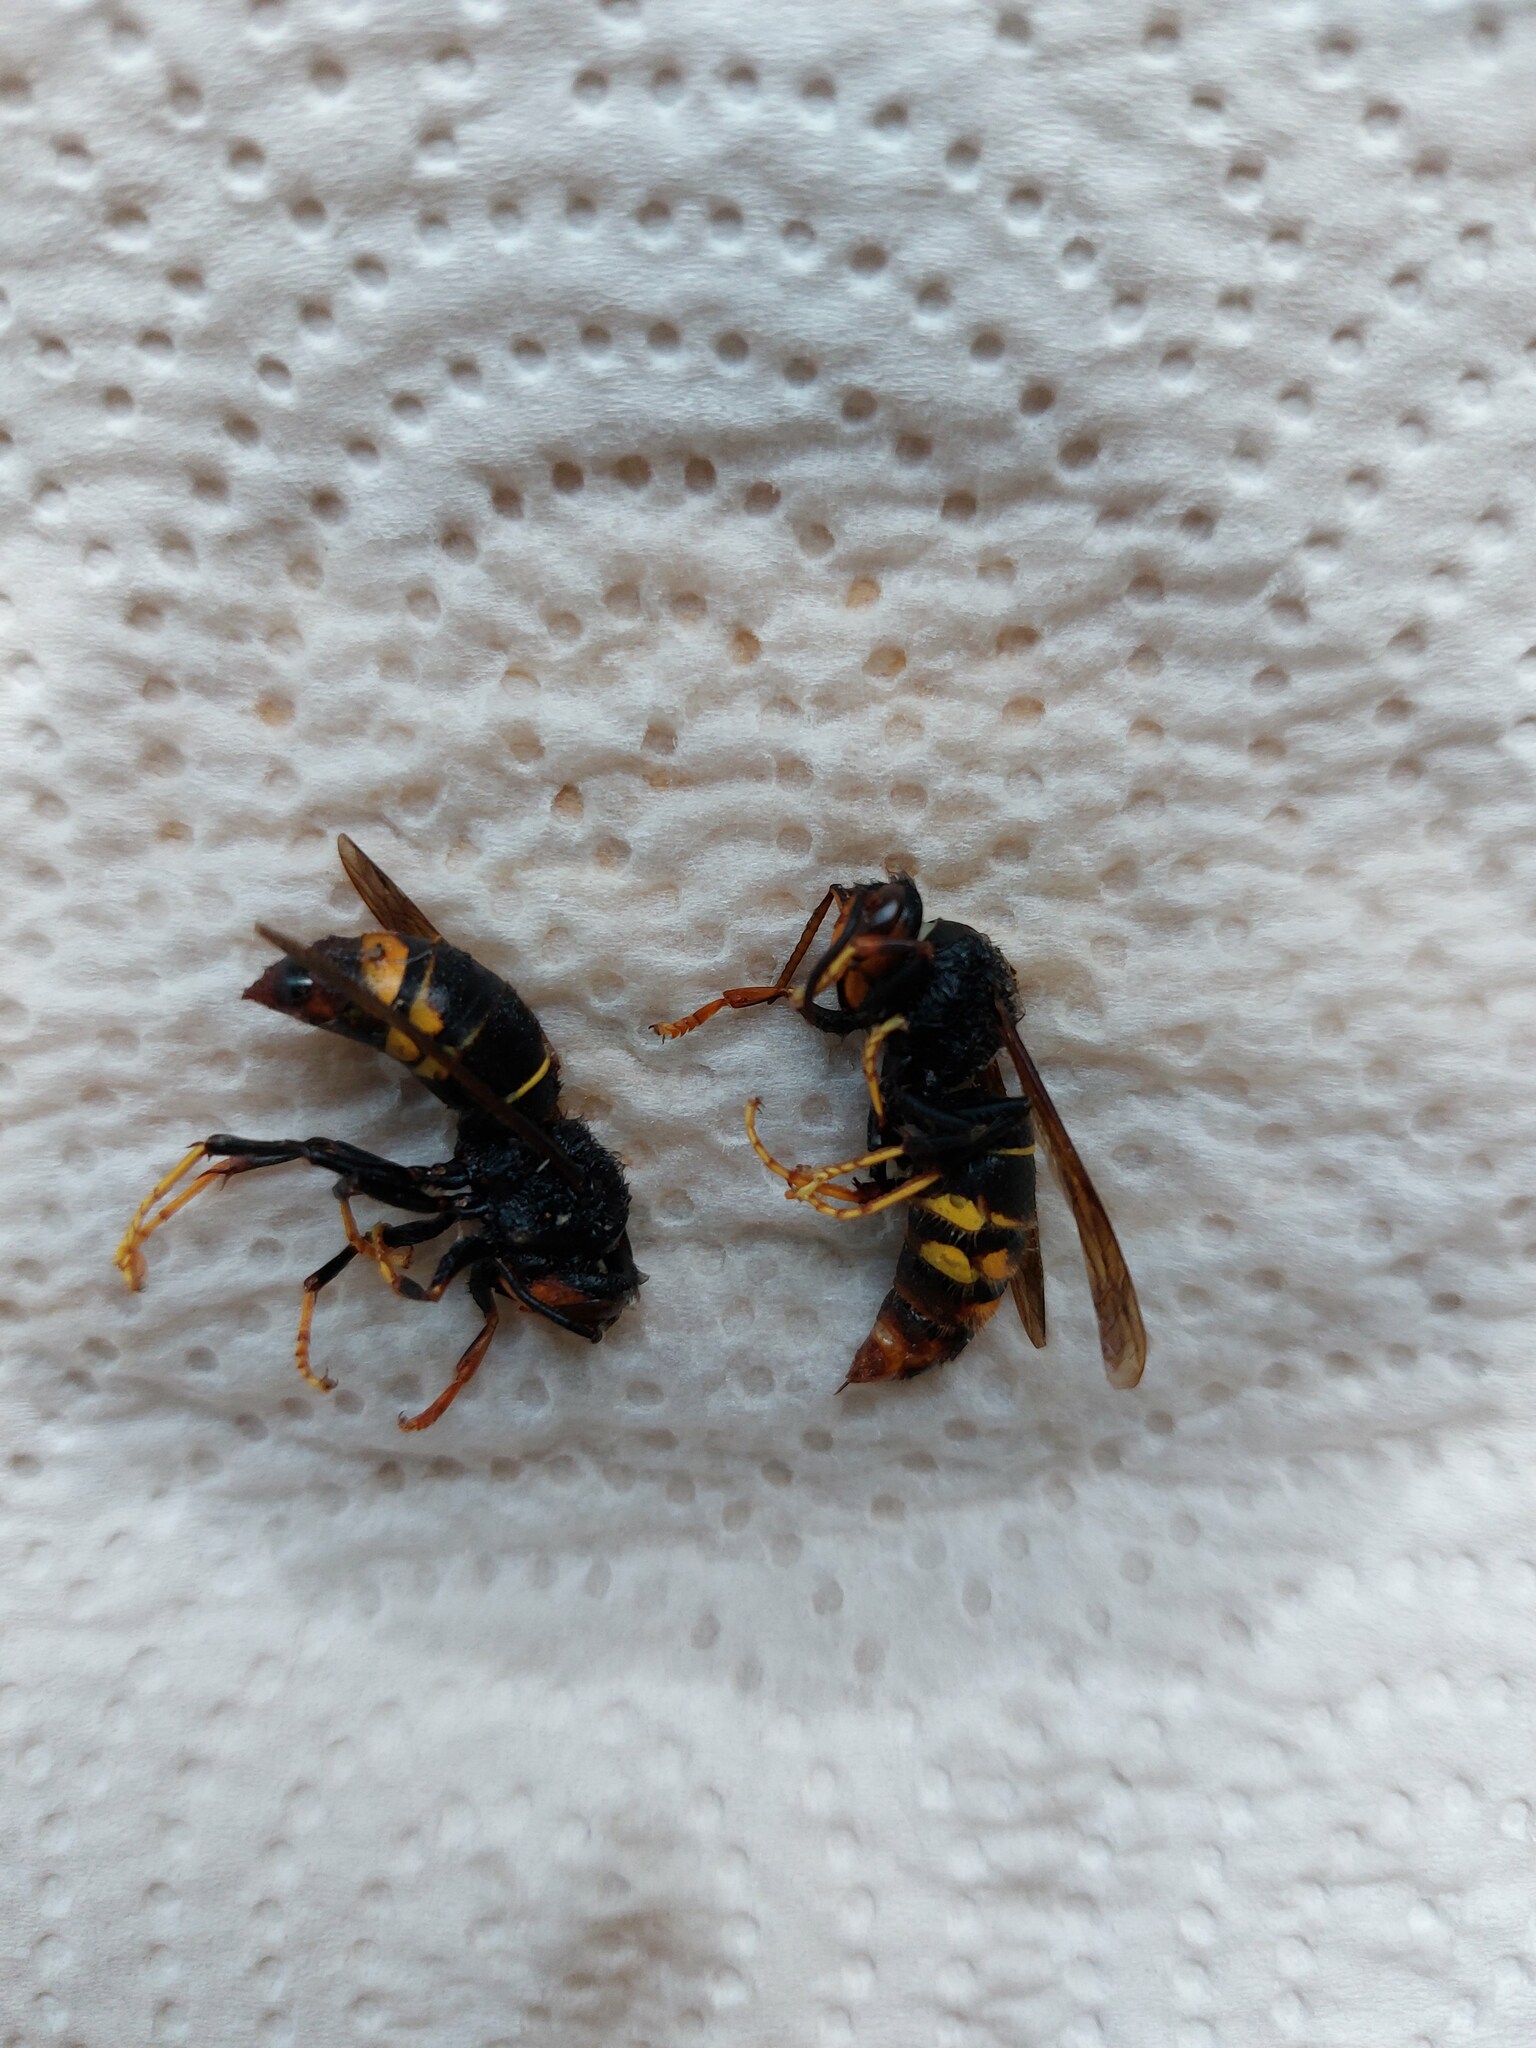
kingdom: Animalia
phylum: Arthropoda
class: Insecta
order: Hymenoptera
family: Vespidae
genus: Vespa
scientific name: Vespa velutina
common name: Asian hornet
